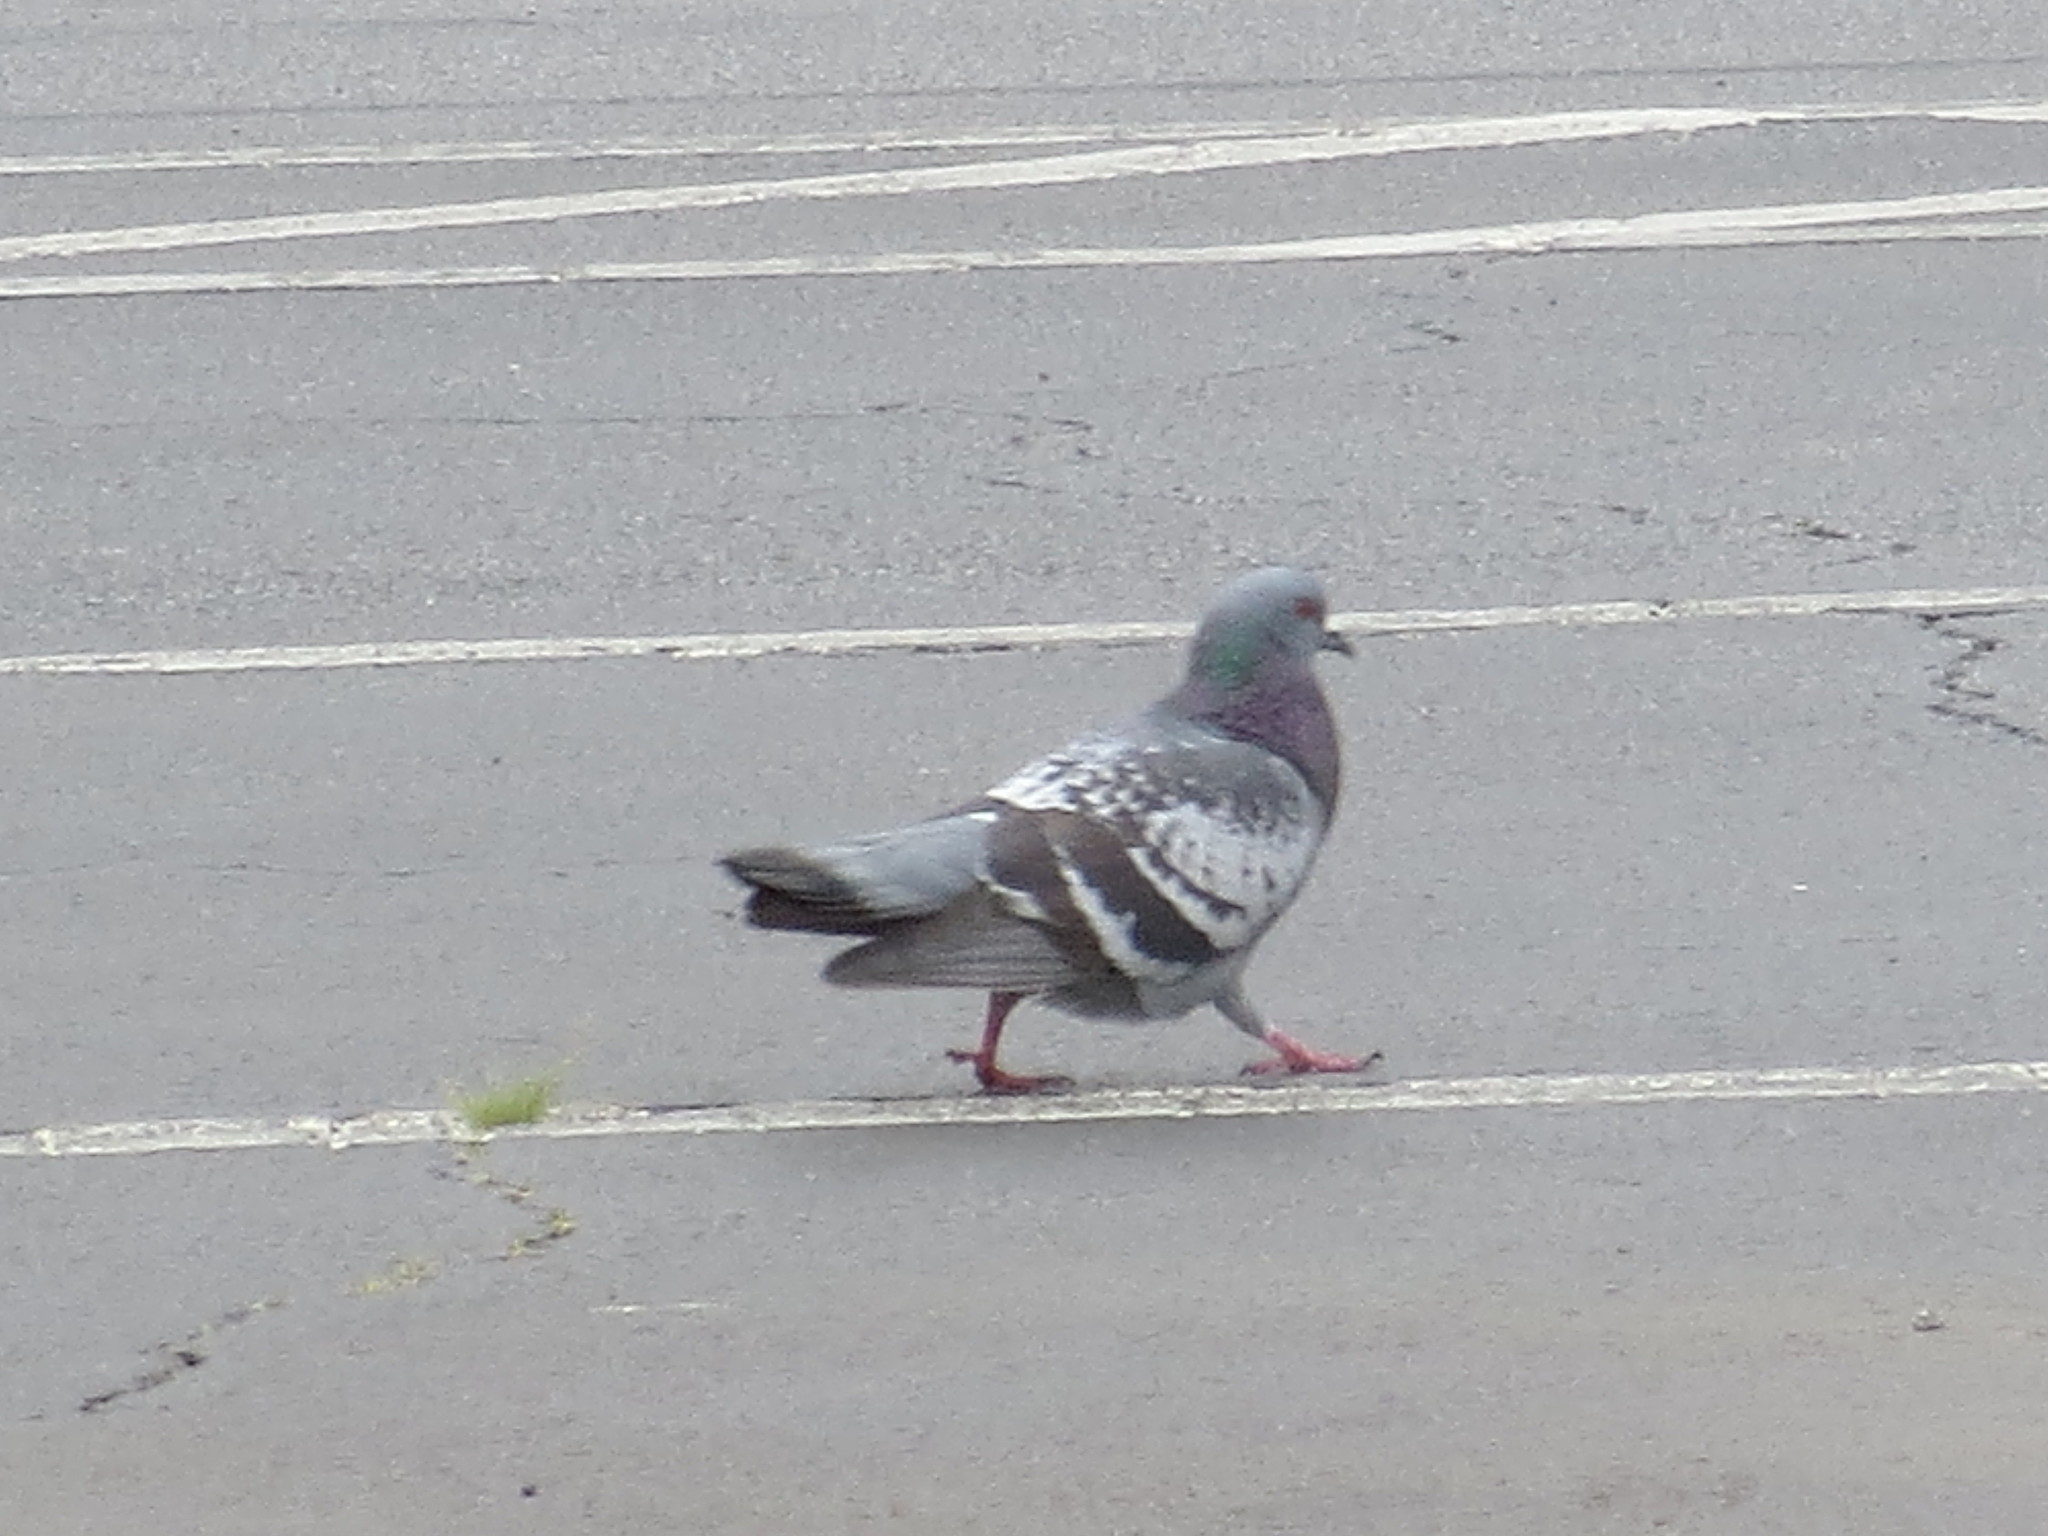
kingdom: Animalia
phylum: Chordata
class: Aves
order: Columbiformes
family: Columbidae
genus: Columba
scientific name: Columba livia
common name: Rock pigeon
